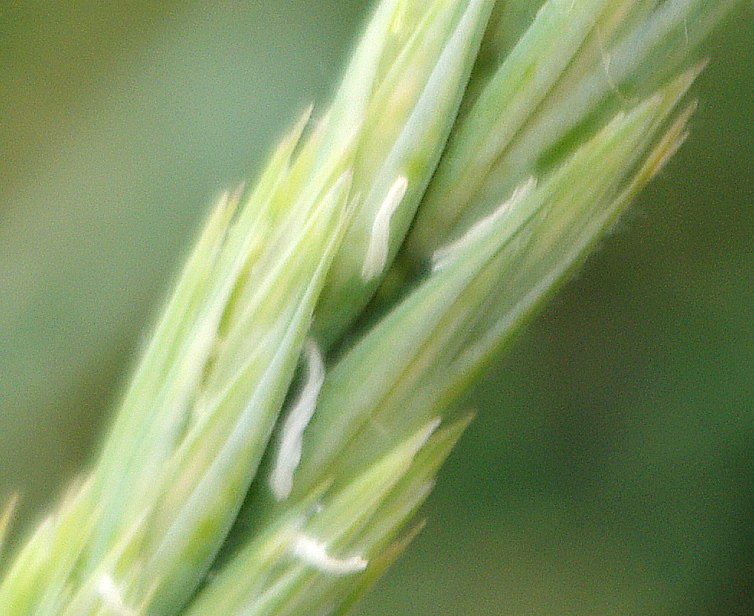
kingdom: Plantae
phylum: Tracheophyta
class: Liliopsida
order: Poales
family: Poaceae
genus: Leymus
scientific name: Leymus arenarius
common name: Lyme-grass
